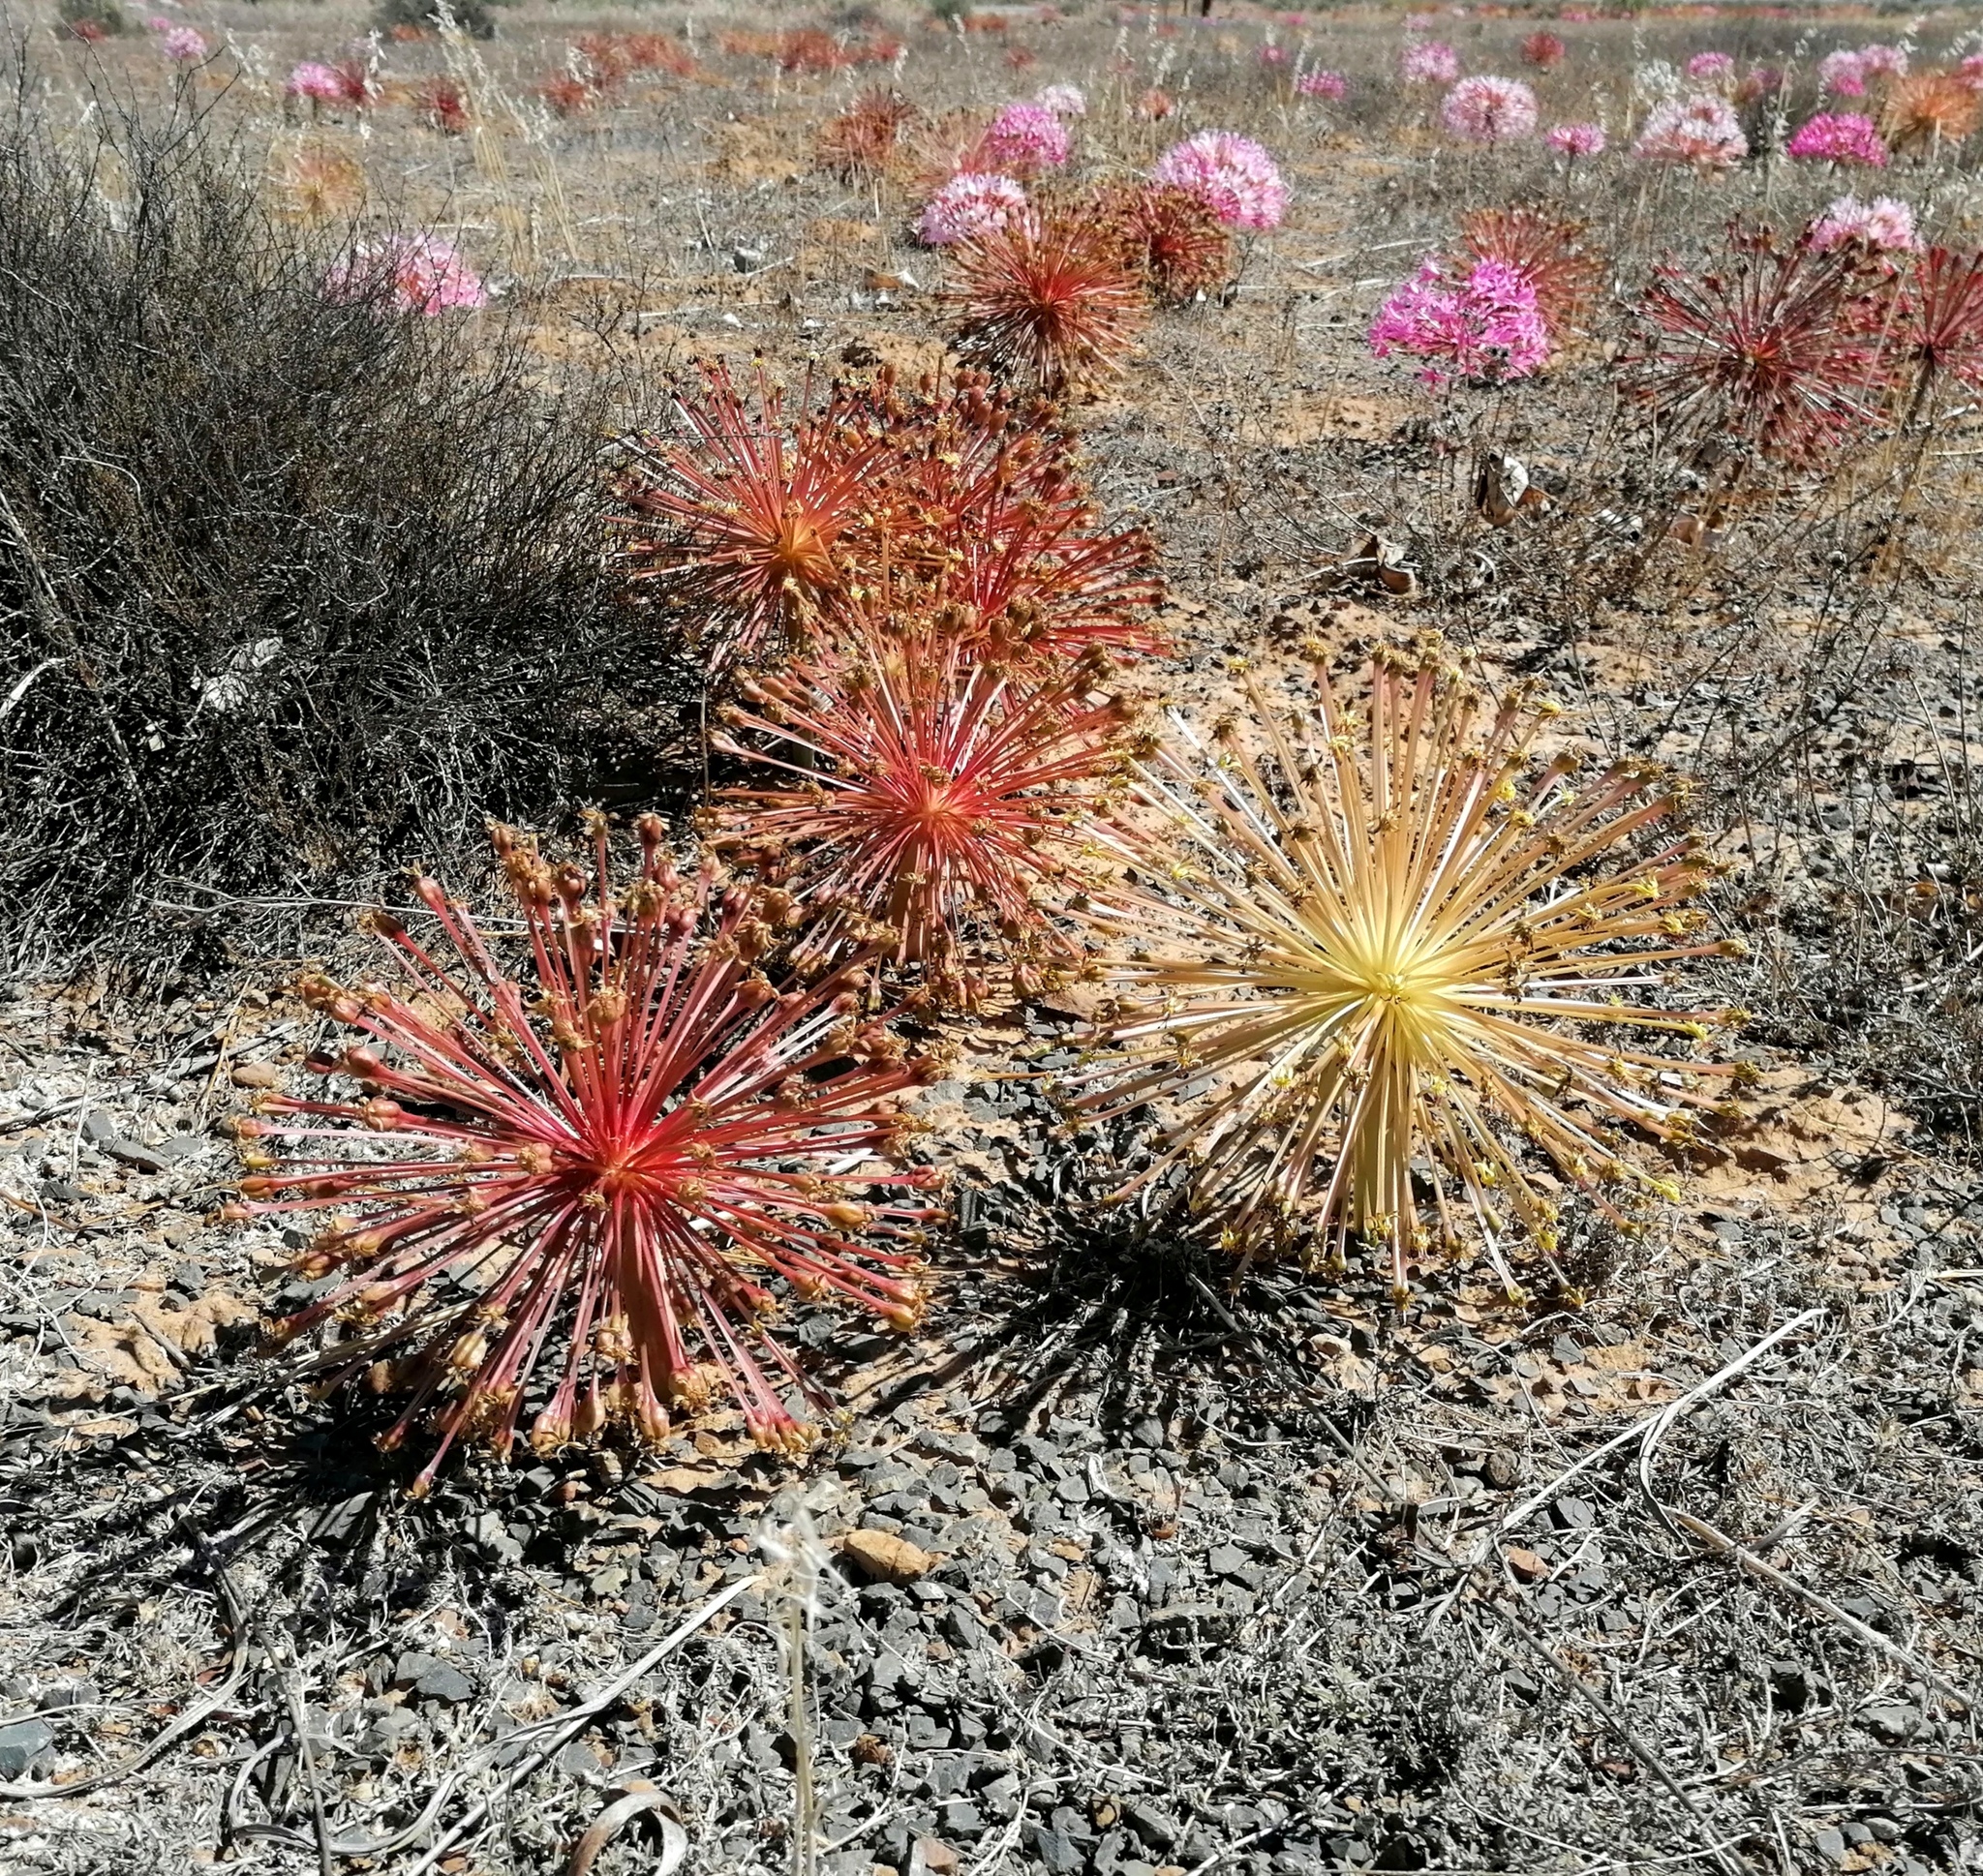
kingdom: Plantae
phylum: Tracheophyta
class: Liliopsida
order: Asparagales
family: Amaryllidaceae
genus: Crossyne
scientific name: Crossyne flava
